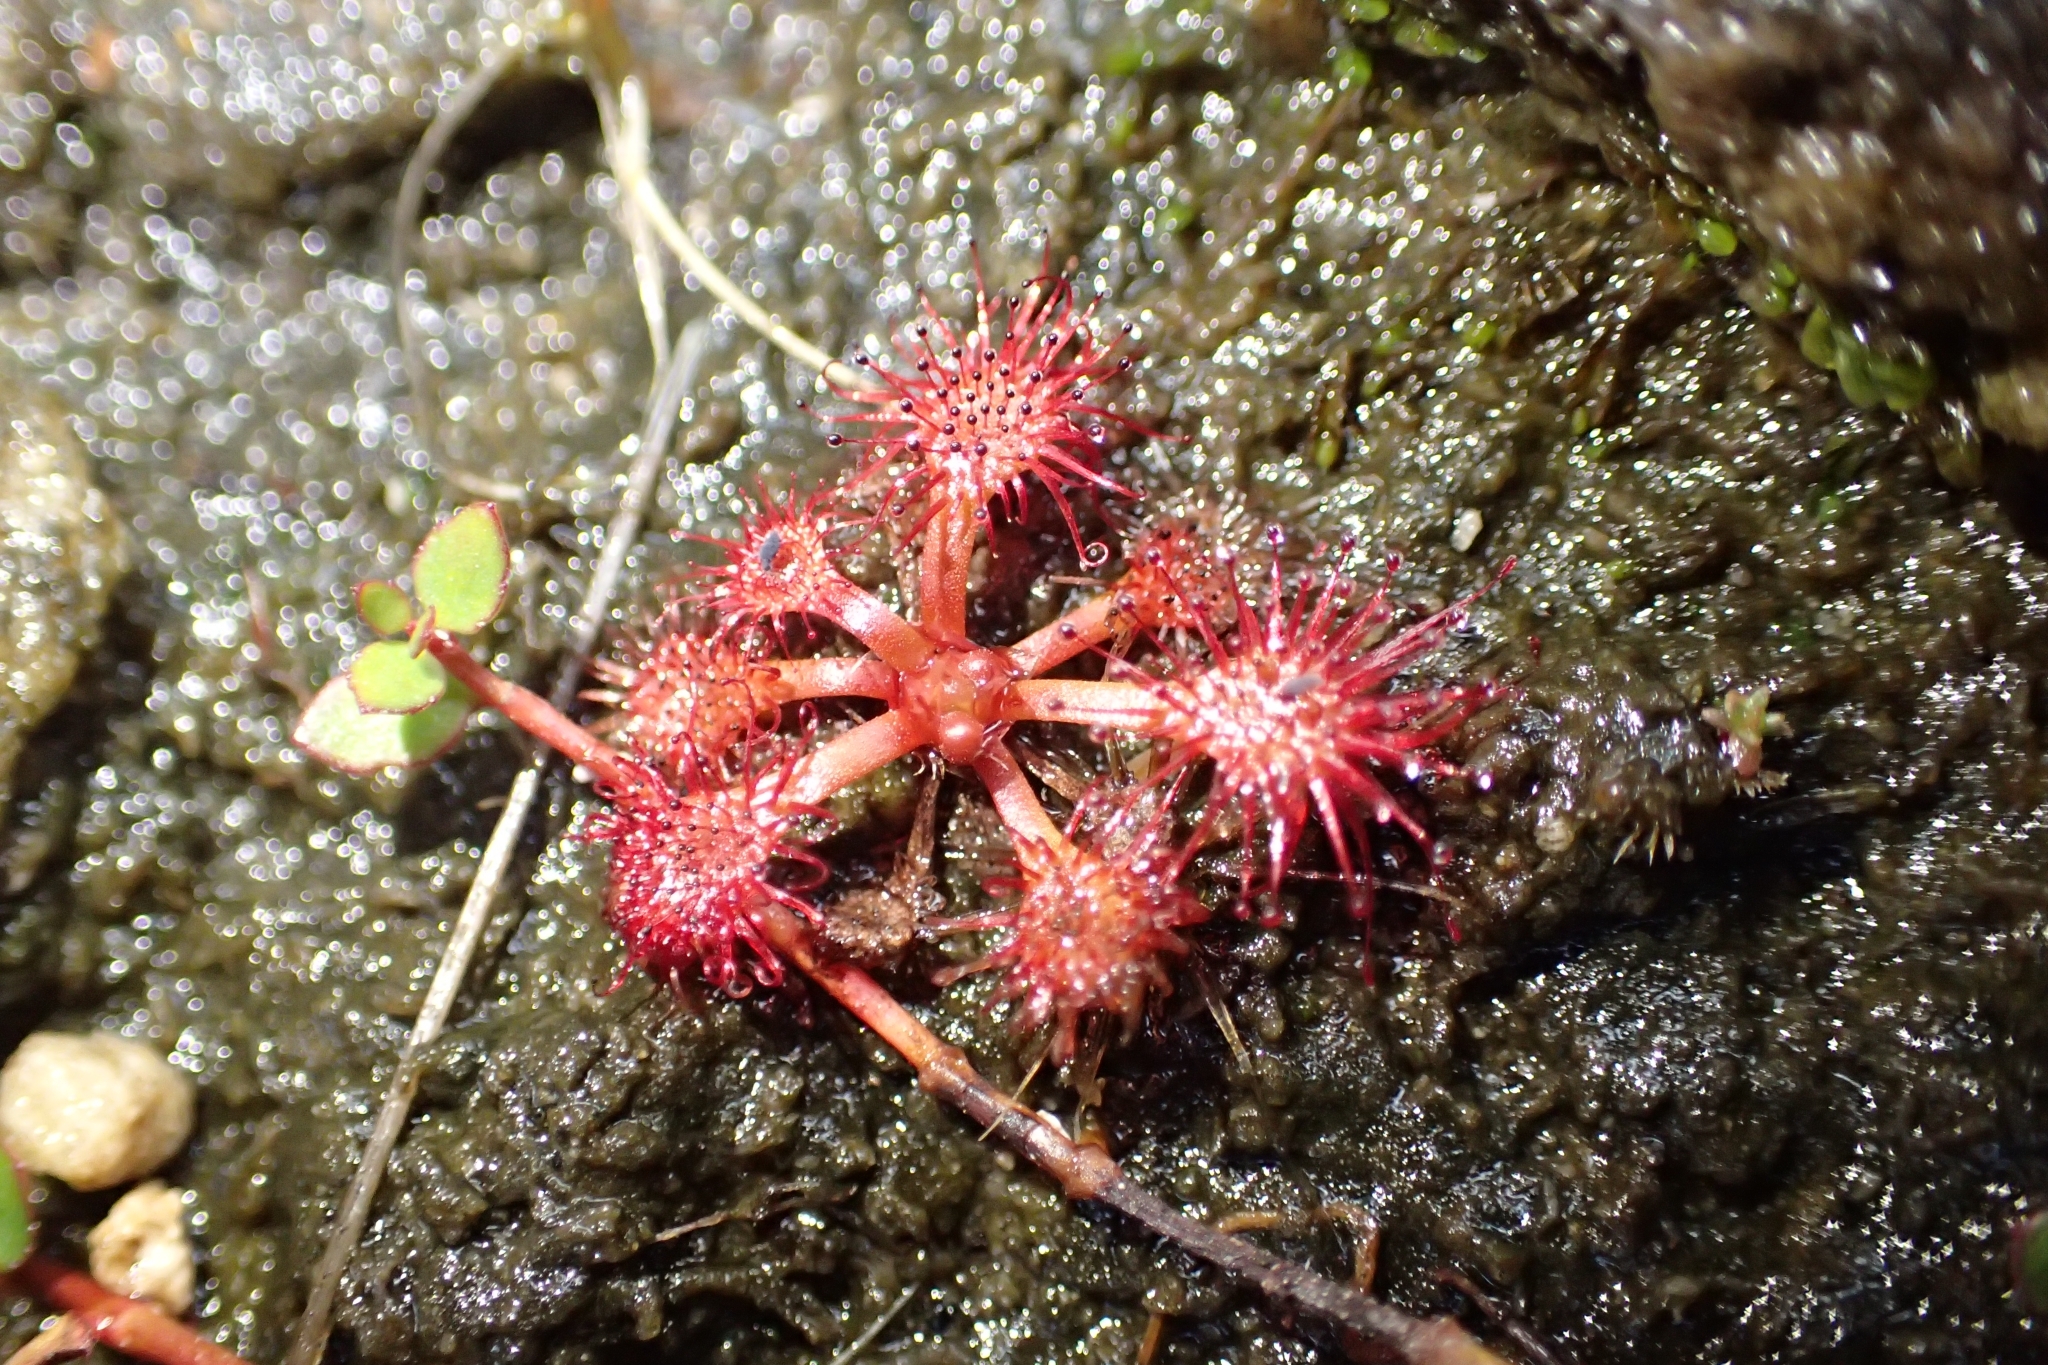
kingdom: Plantae
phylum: Tracheophyta
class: Magnoliopsida
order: Caryophyllales
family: Droseraceae
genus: Drosera
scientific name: Drosera spatulata
